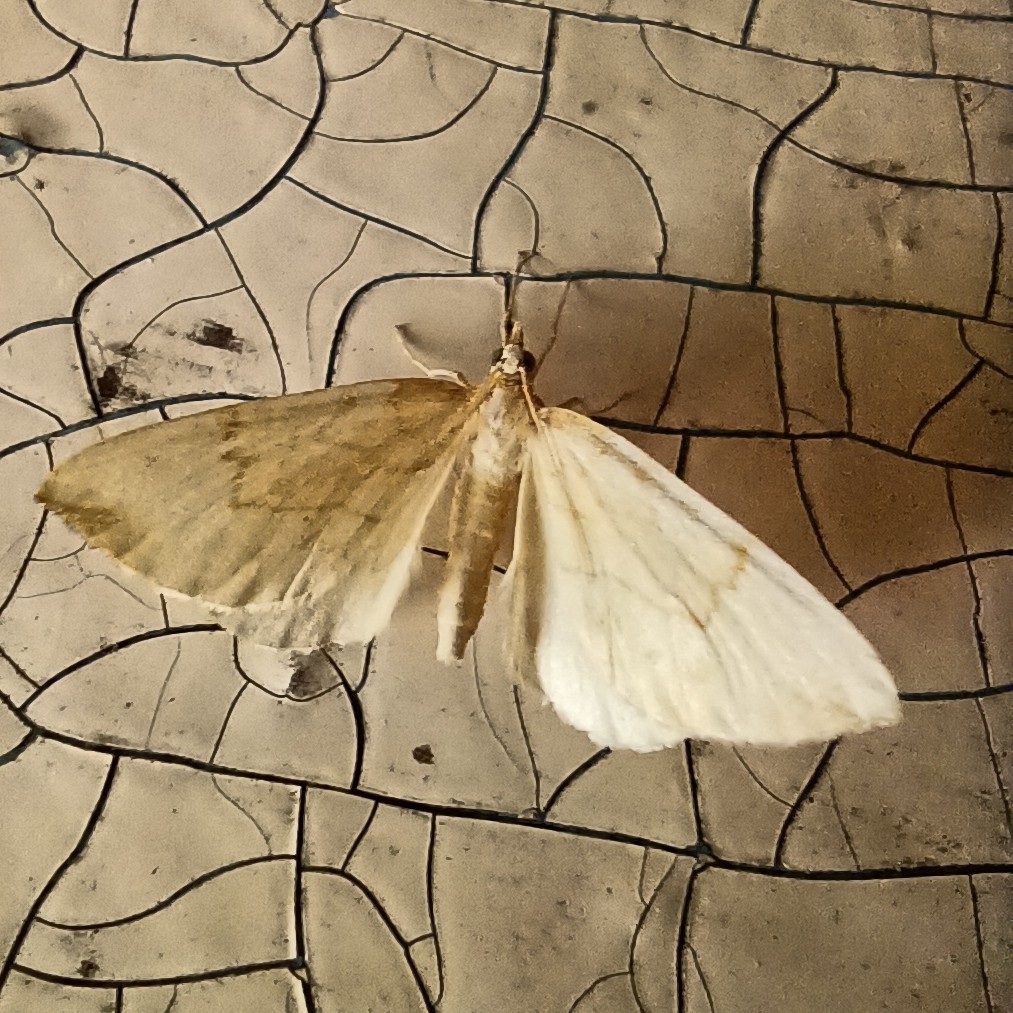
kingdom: Animalia
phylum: Arthropoda
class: Insecta
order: Lepidoptera
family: Geometridae
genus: Eulithis
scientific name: Eulithis pyraliata
